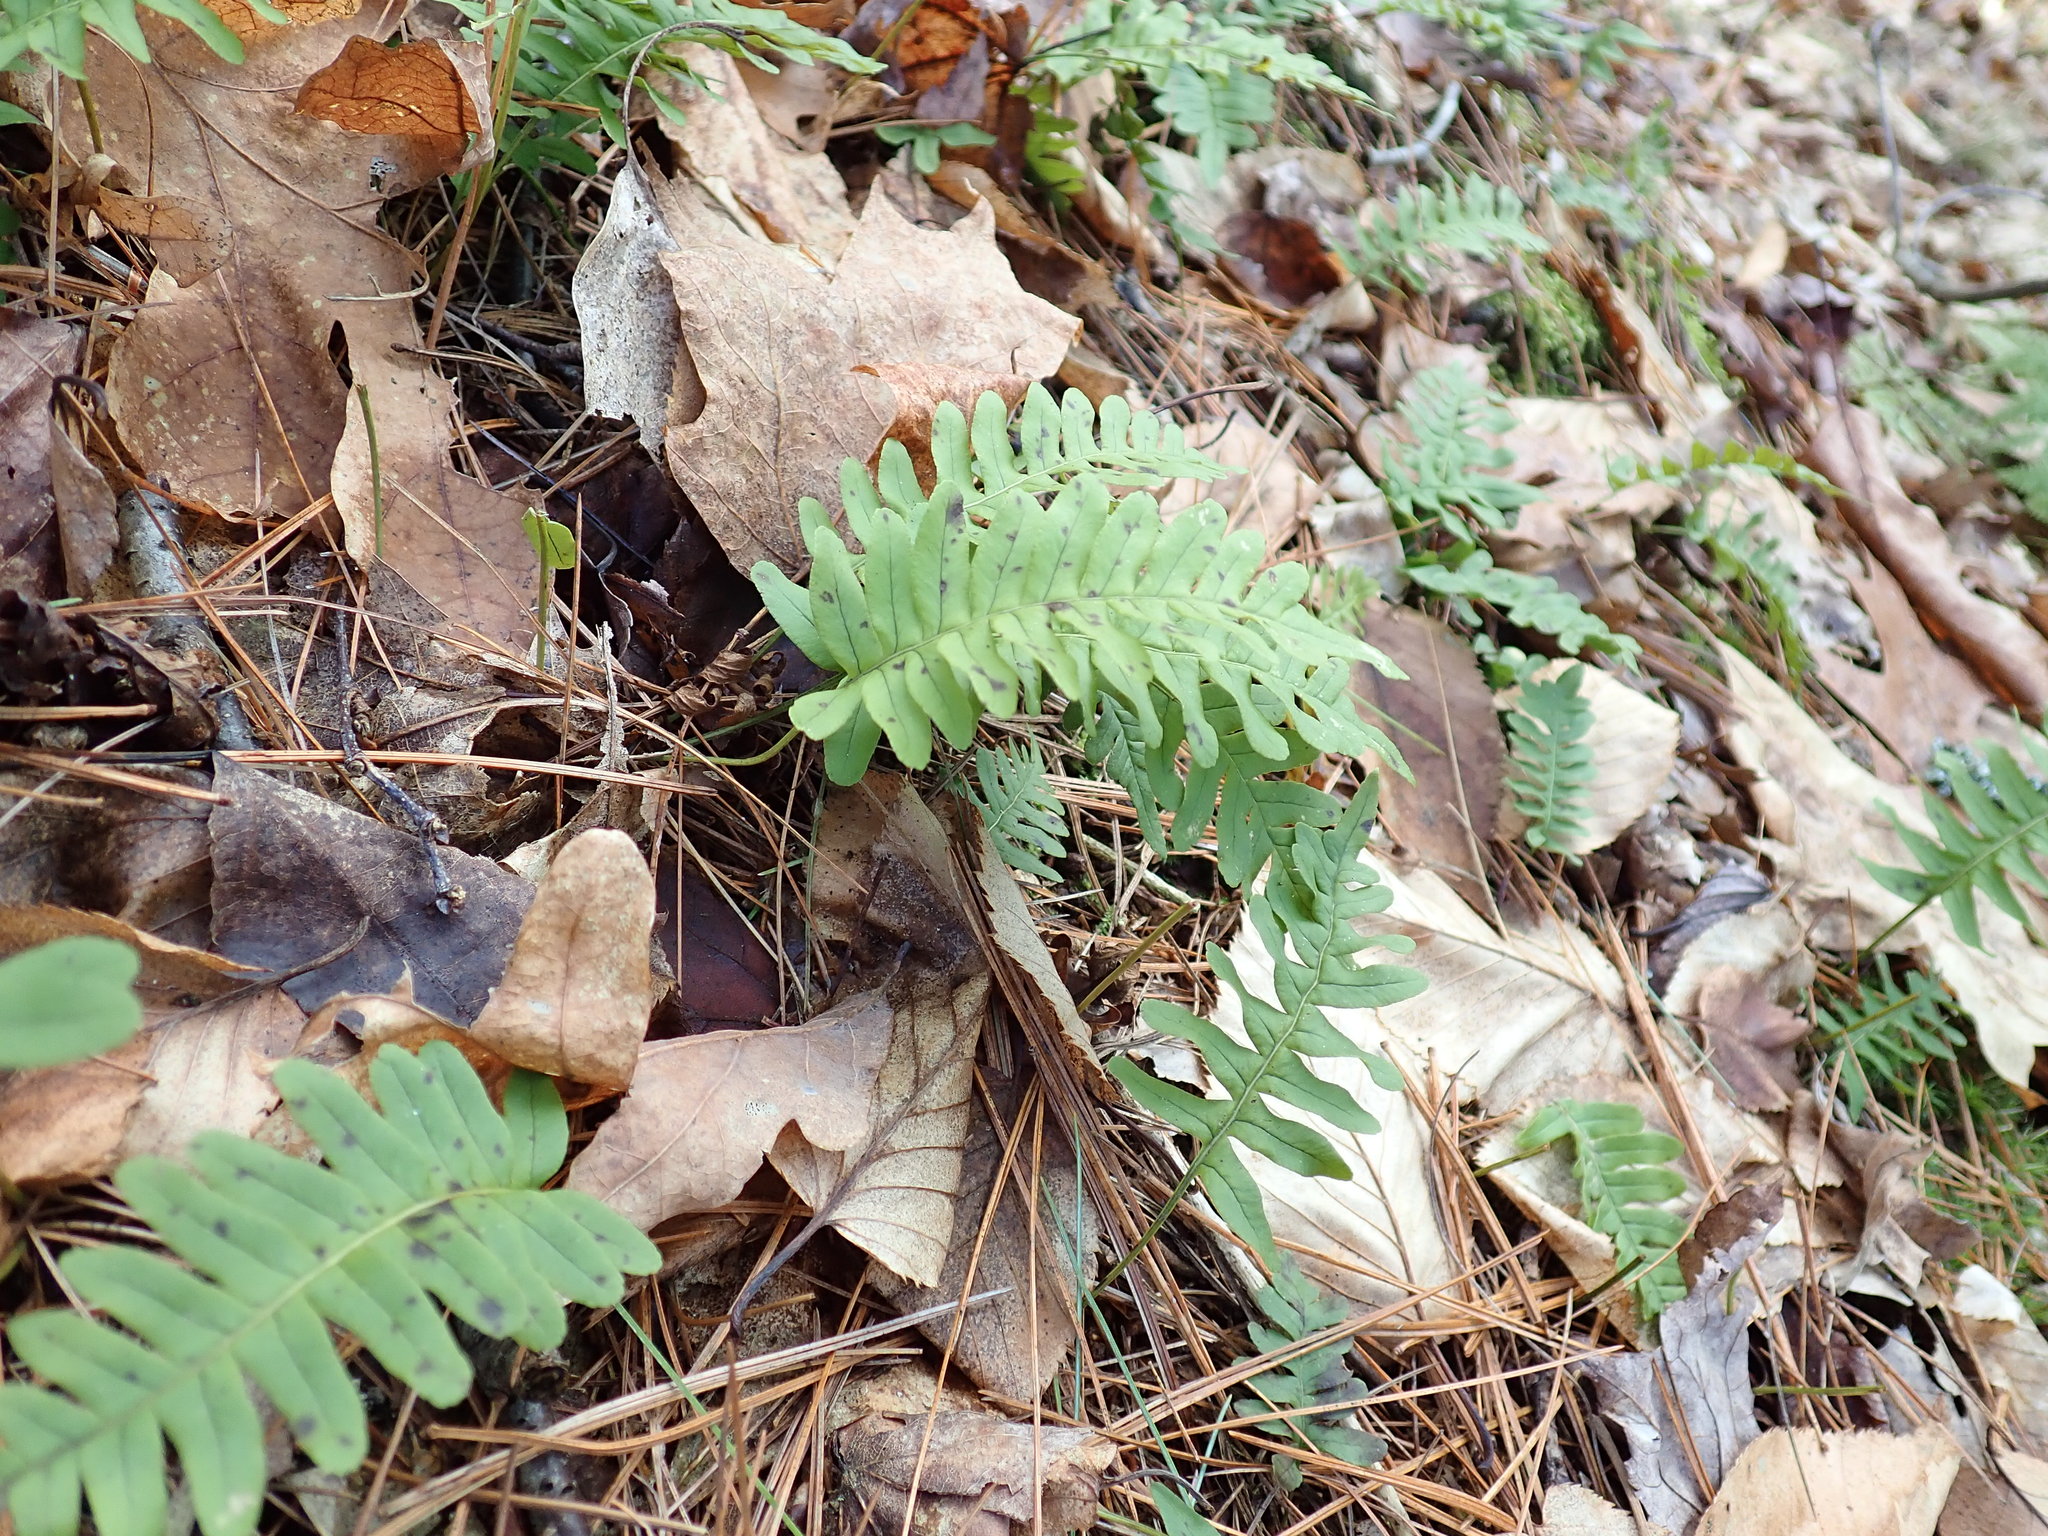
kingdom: Plantae
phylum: Tracheophyta
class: Polypodiopsida
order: Polypodiales
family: Polypodiaceae
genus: Polypodium
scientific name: Polypodium virginianum
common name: American wall fern
